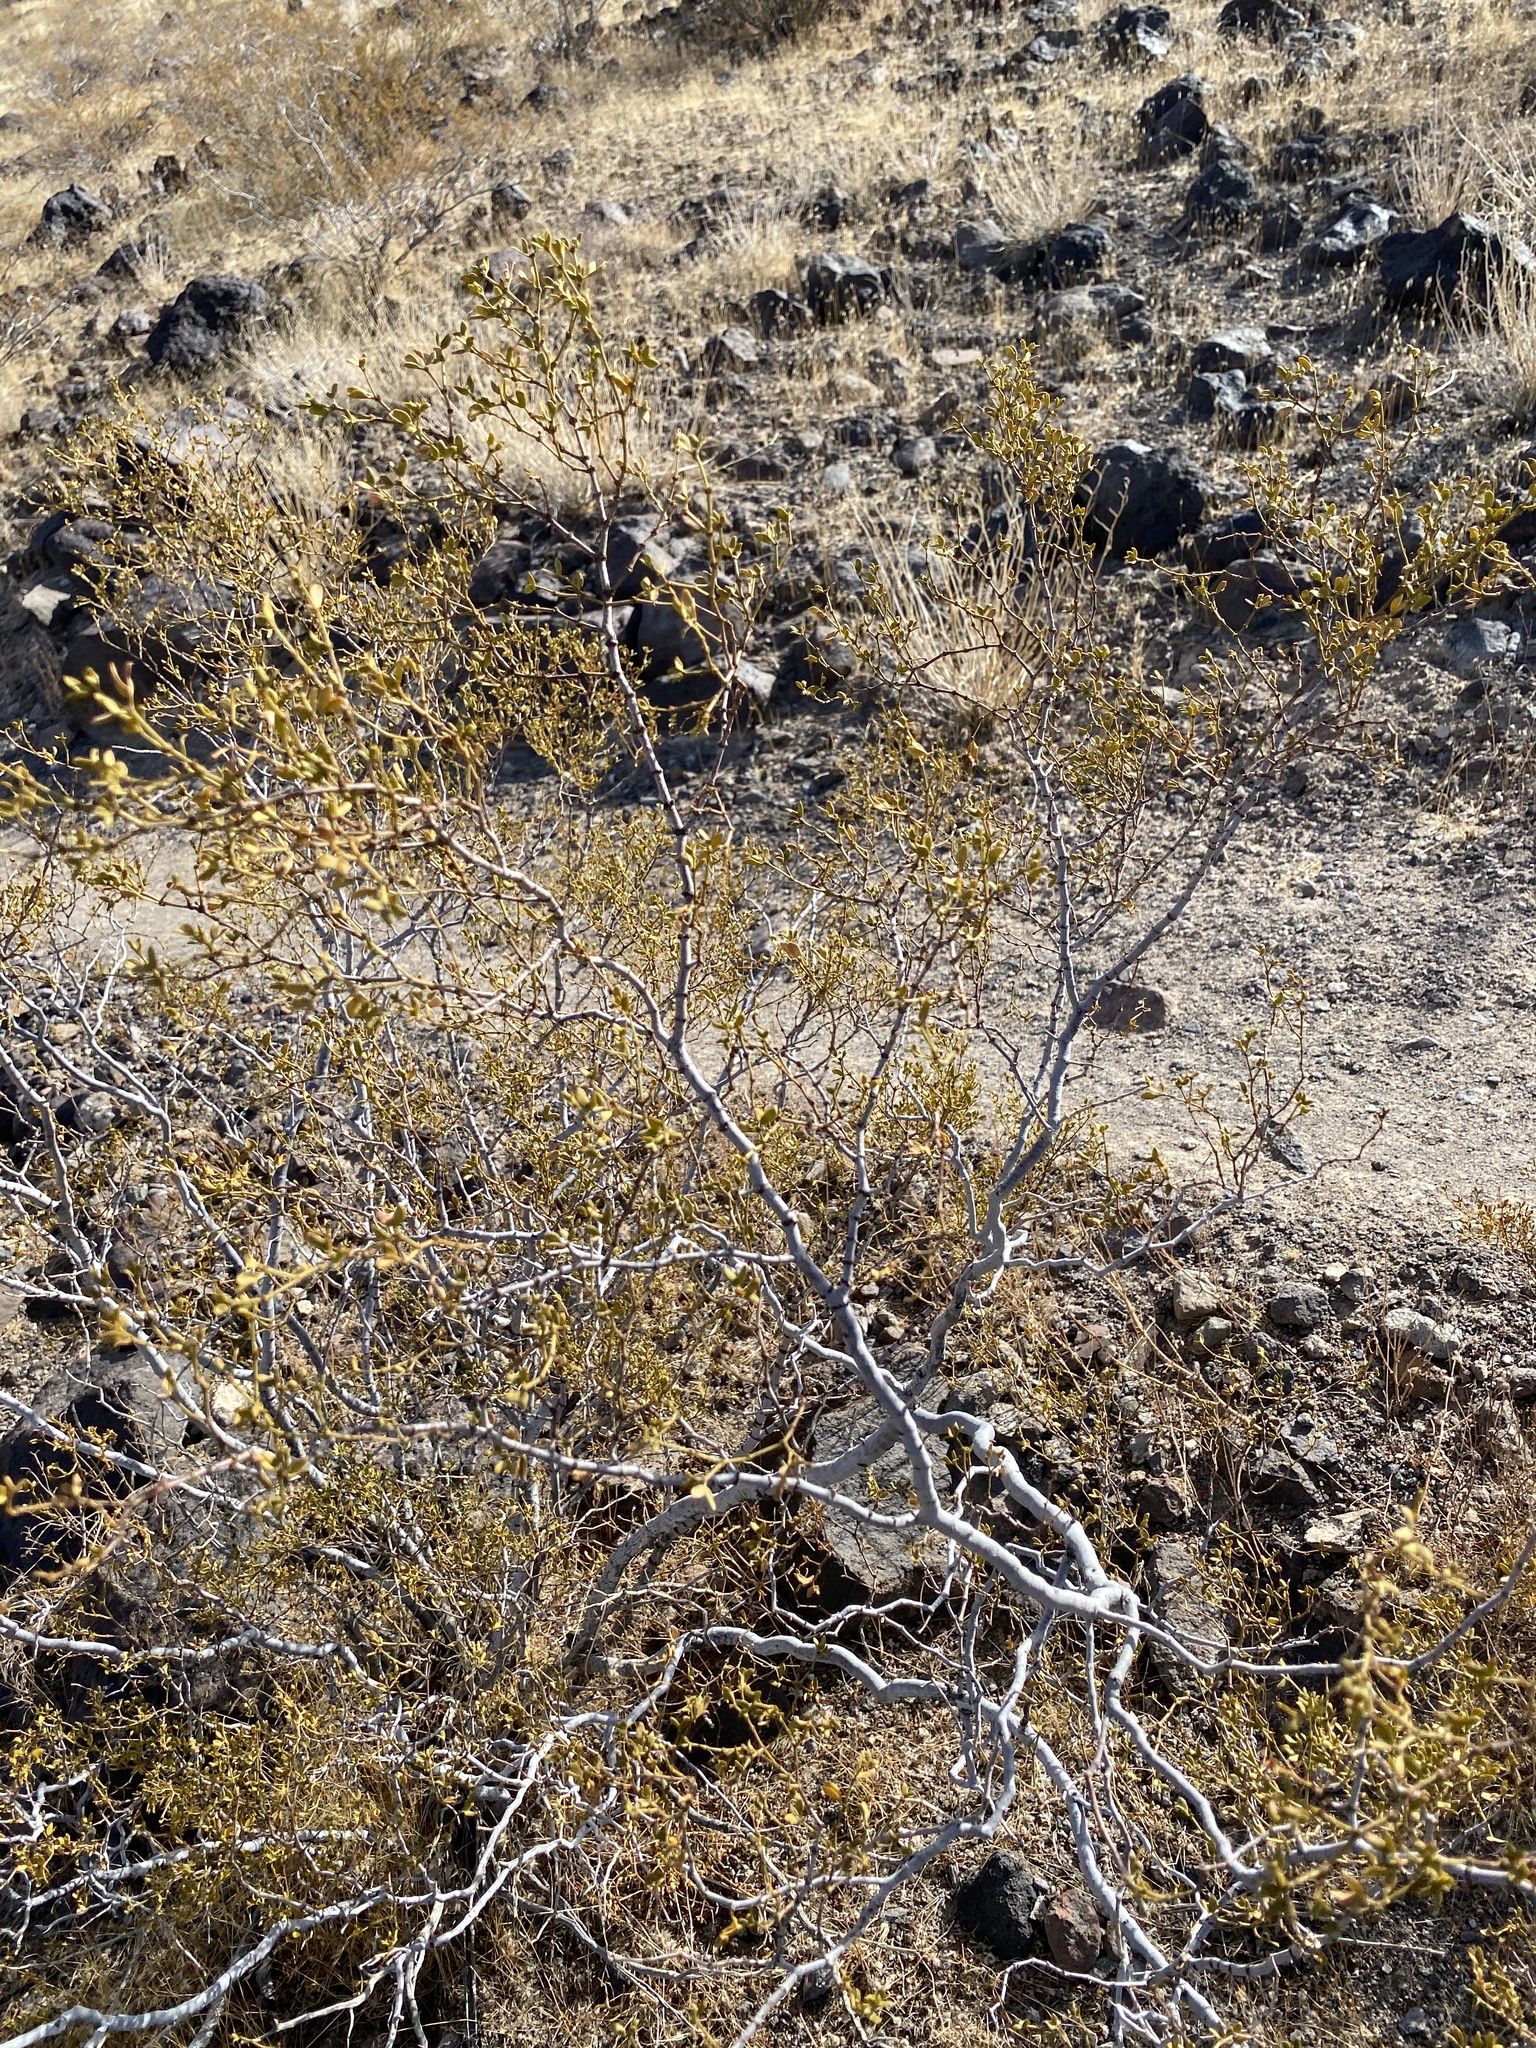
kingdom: Plantae
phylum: Tracheophyta
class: Magnoliopsida
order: Zygophyllales
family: Zygophyllaceae
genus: Larrea
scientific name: Larrea tridentata
